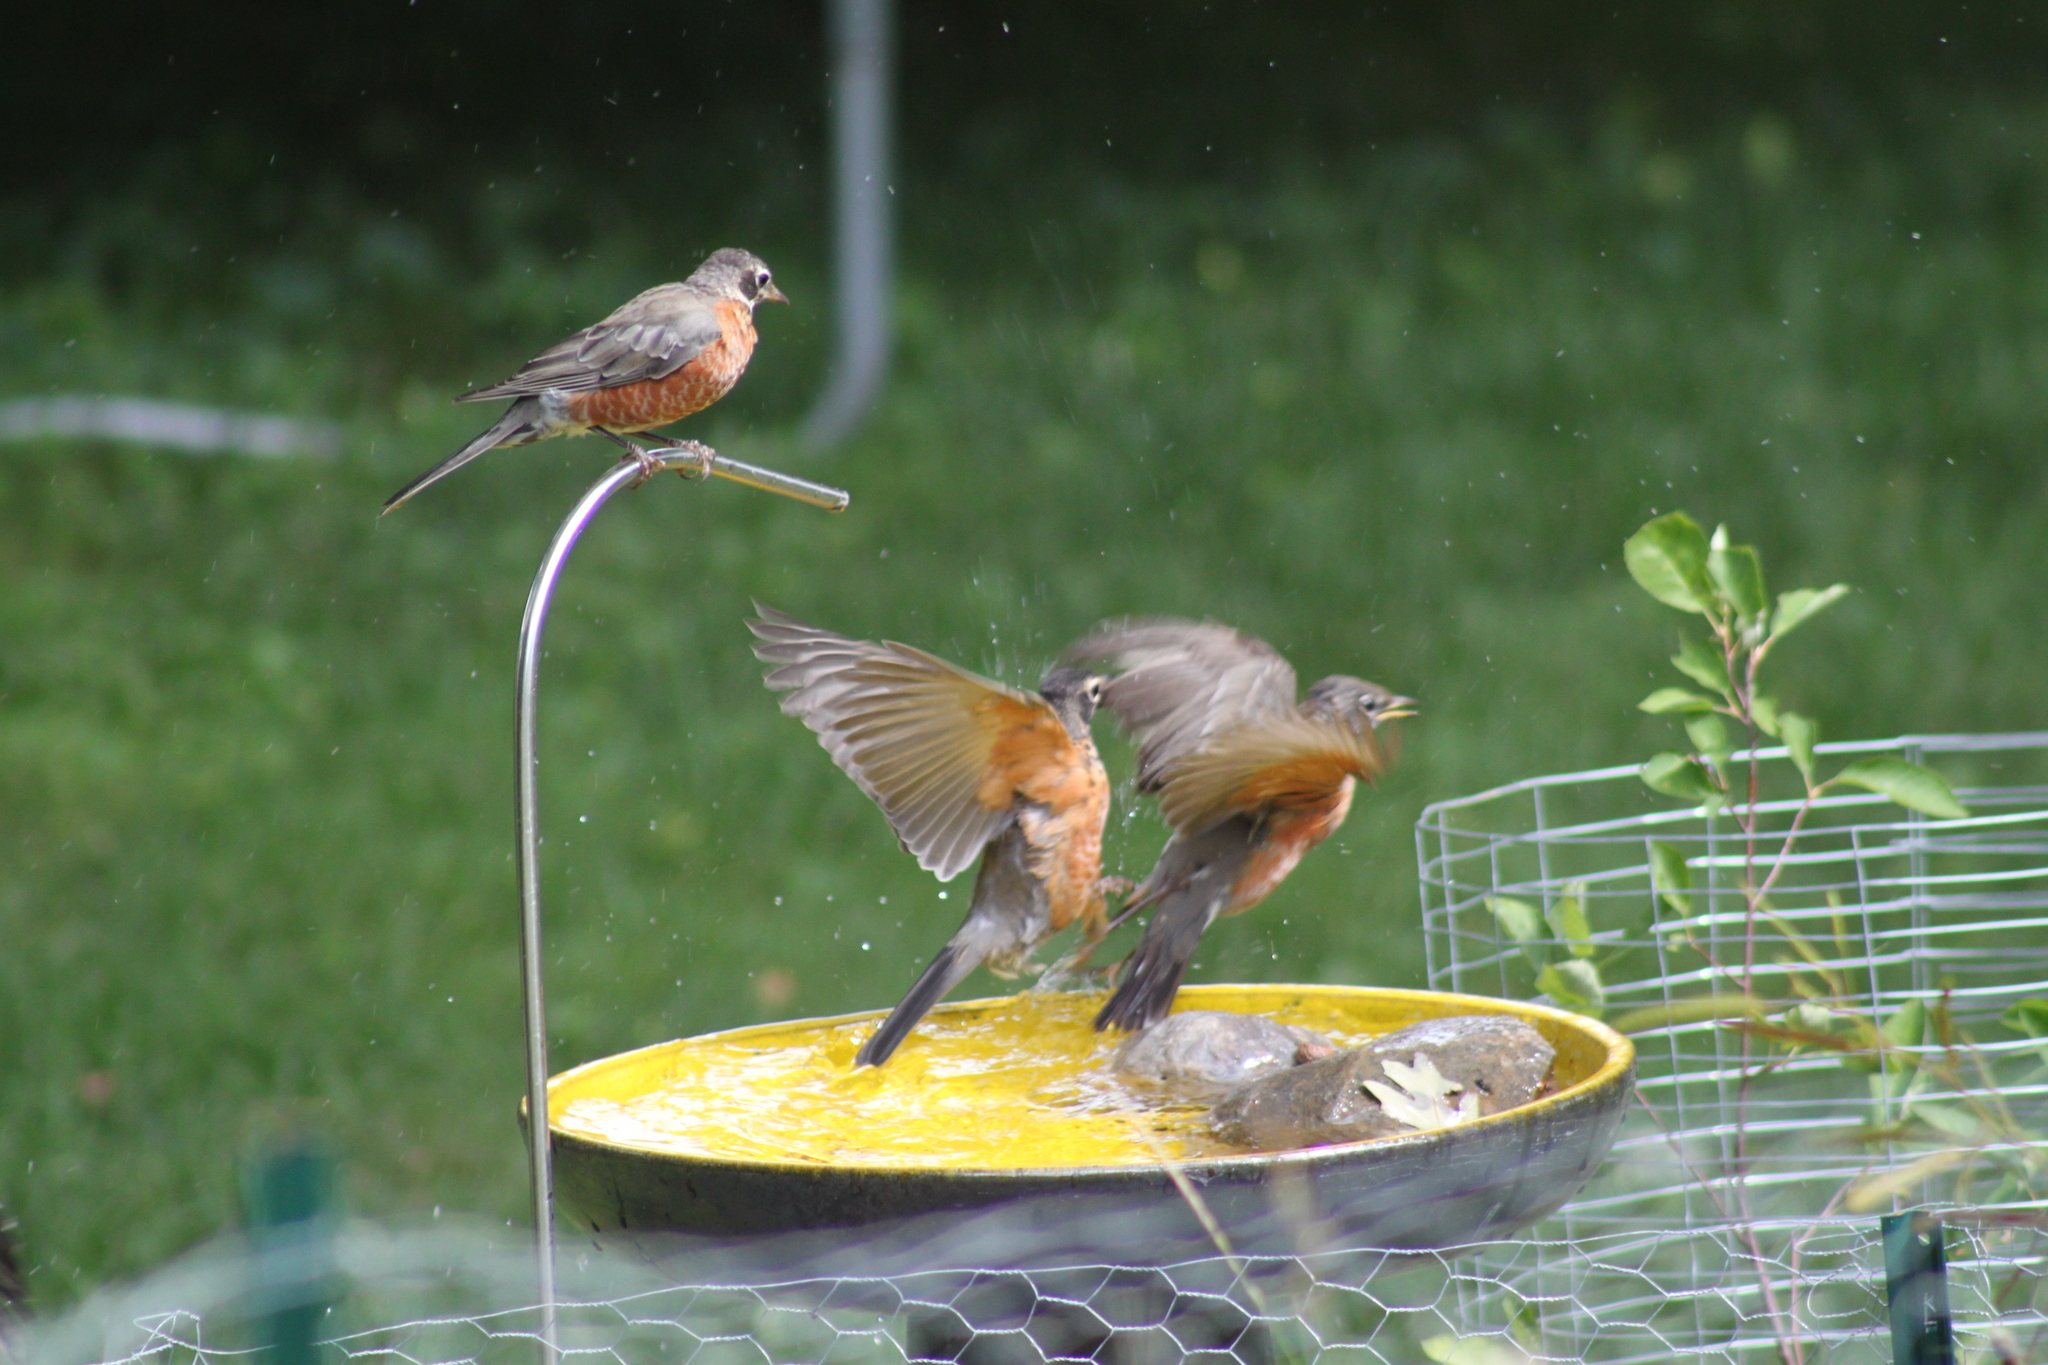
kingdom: Animalia
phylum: Chordata
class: Aves
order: Passeriformes
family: Turdidae
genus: Turdus
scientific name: Turdus migratorius
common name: American robin
